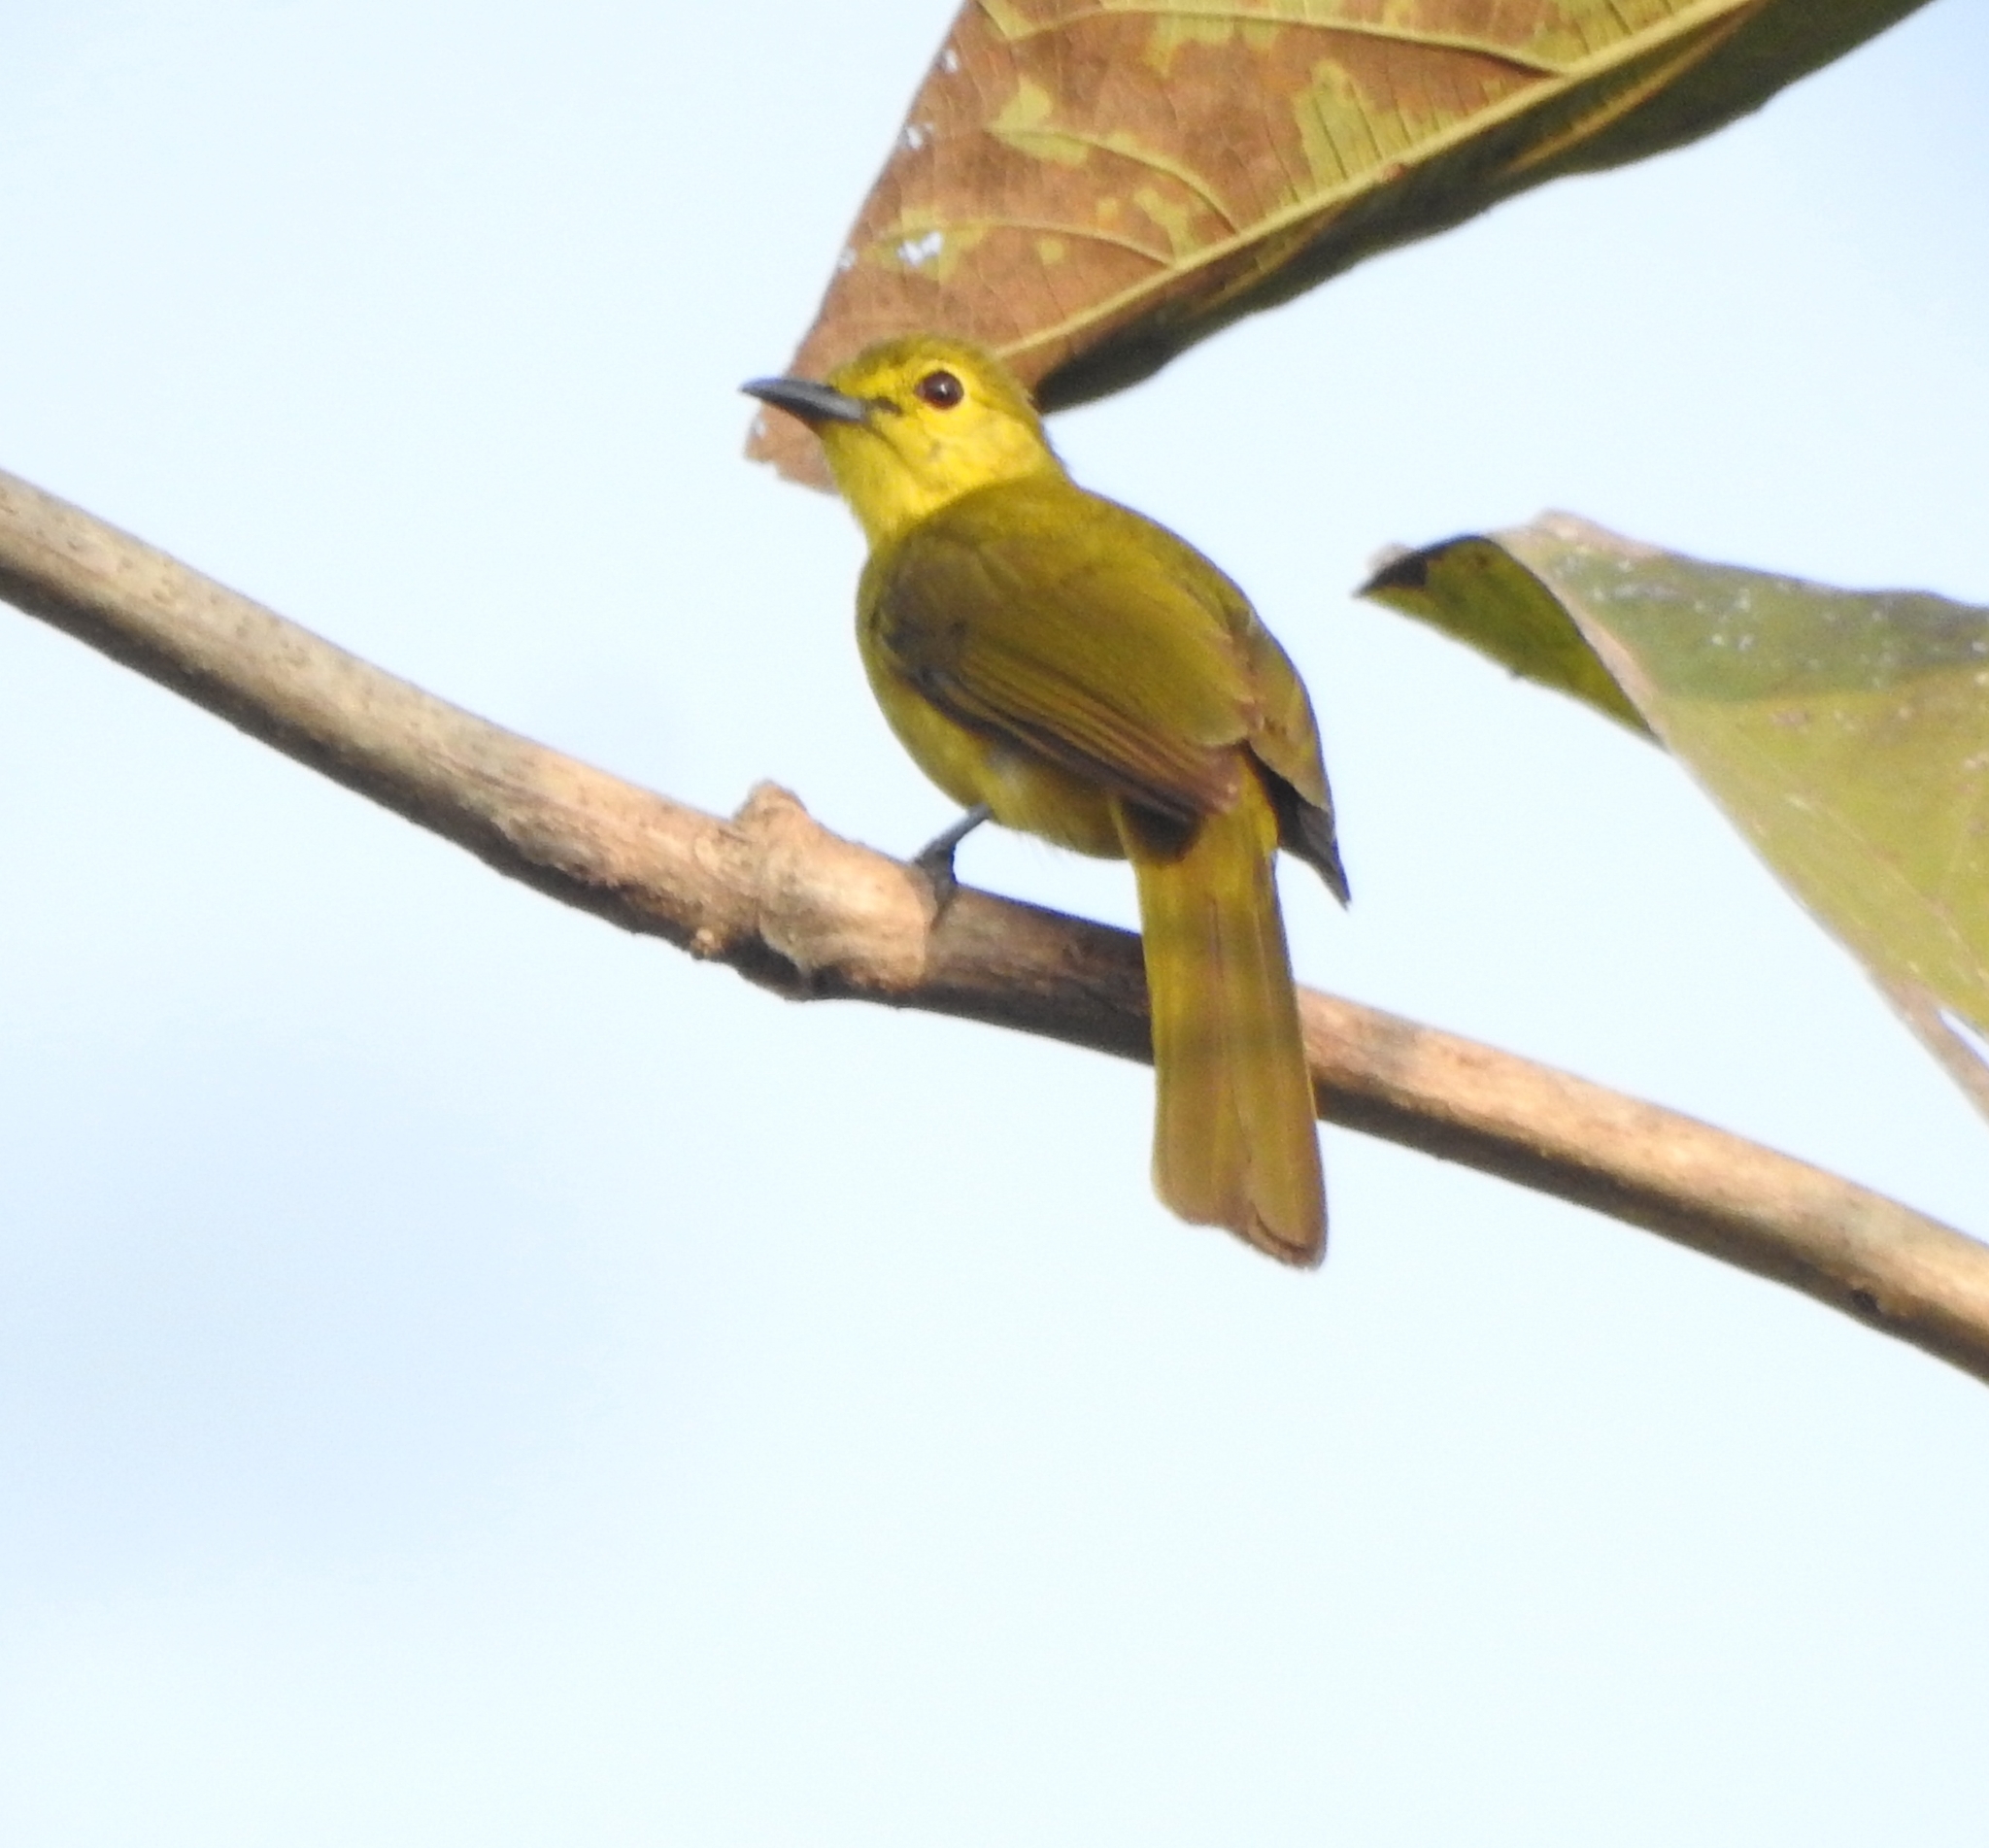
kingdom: Animalia
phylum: Chordata
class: Aves
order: Passeriformes
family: Pycnonotidae
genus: Acritillas
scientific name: Acritillas indica
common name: Yellow-browed bulbul
